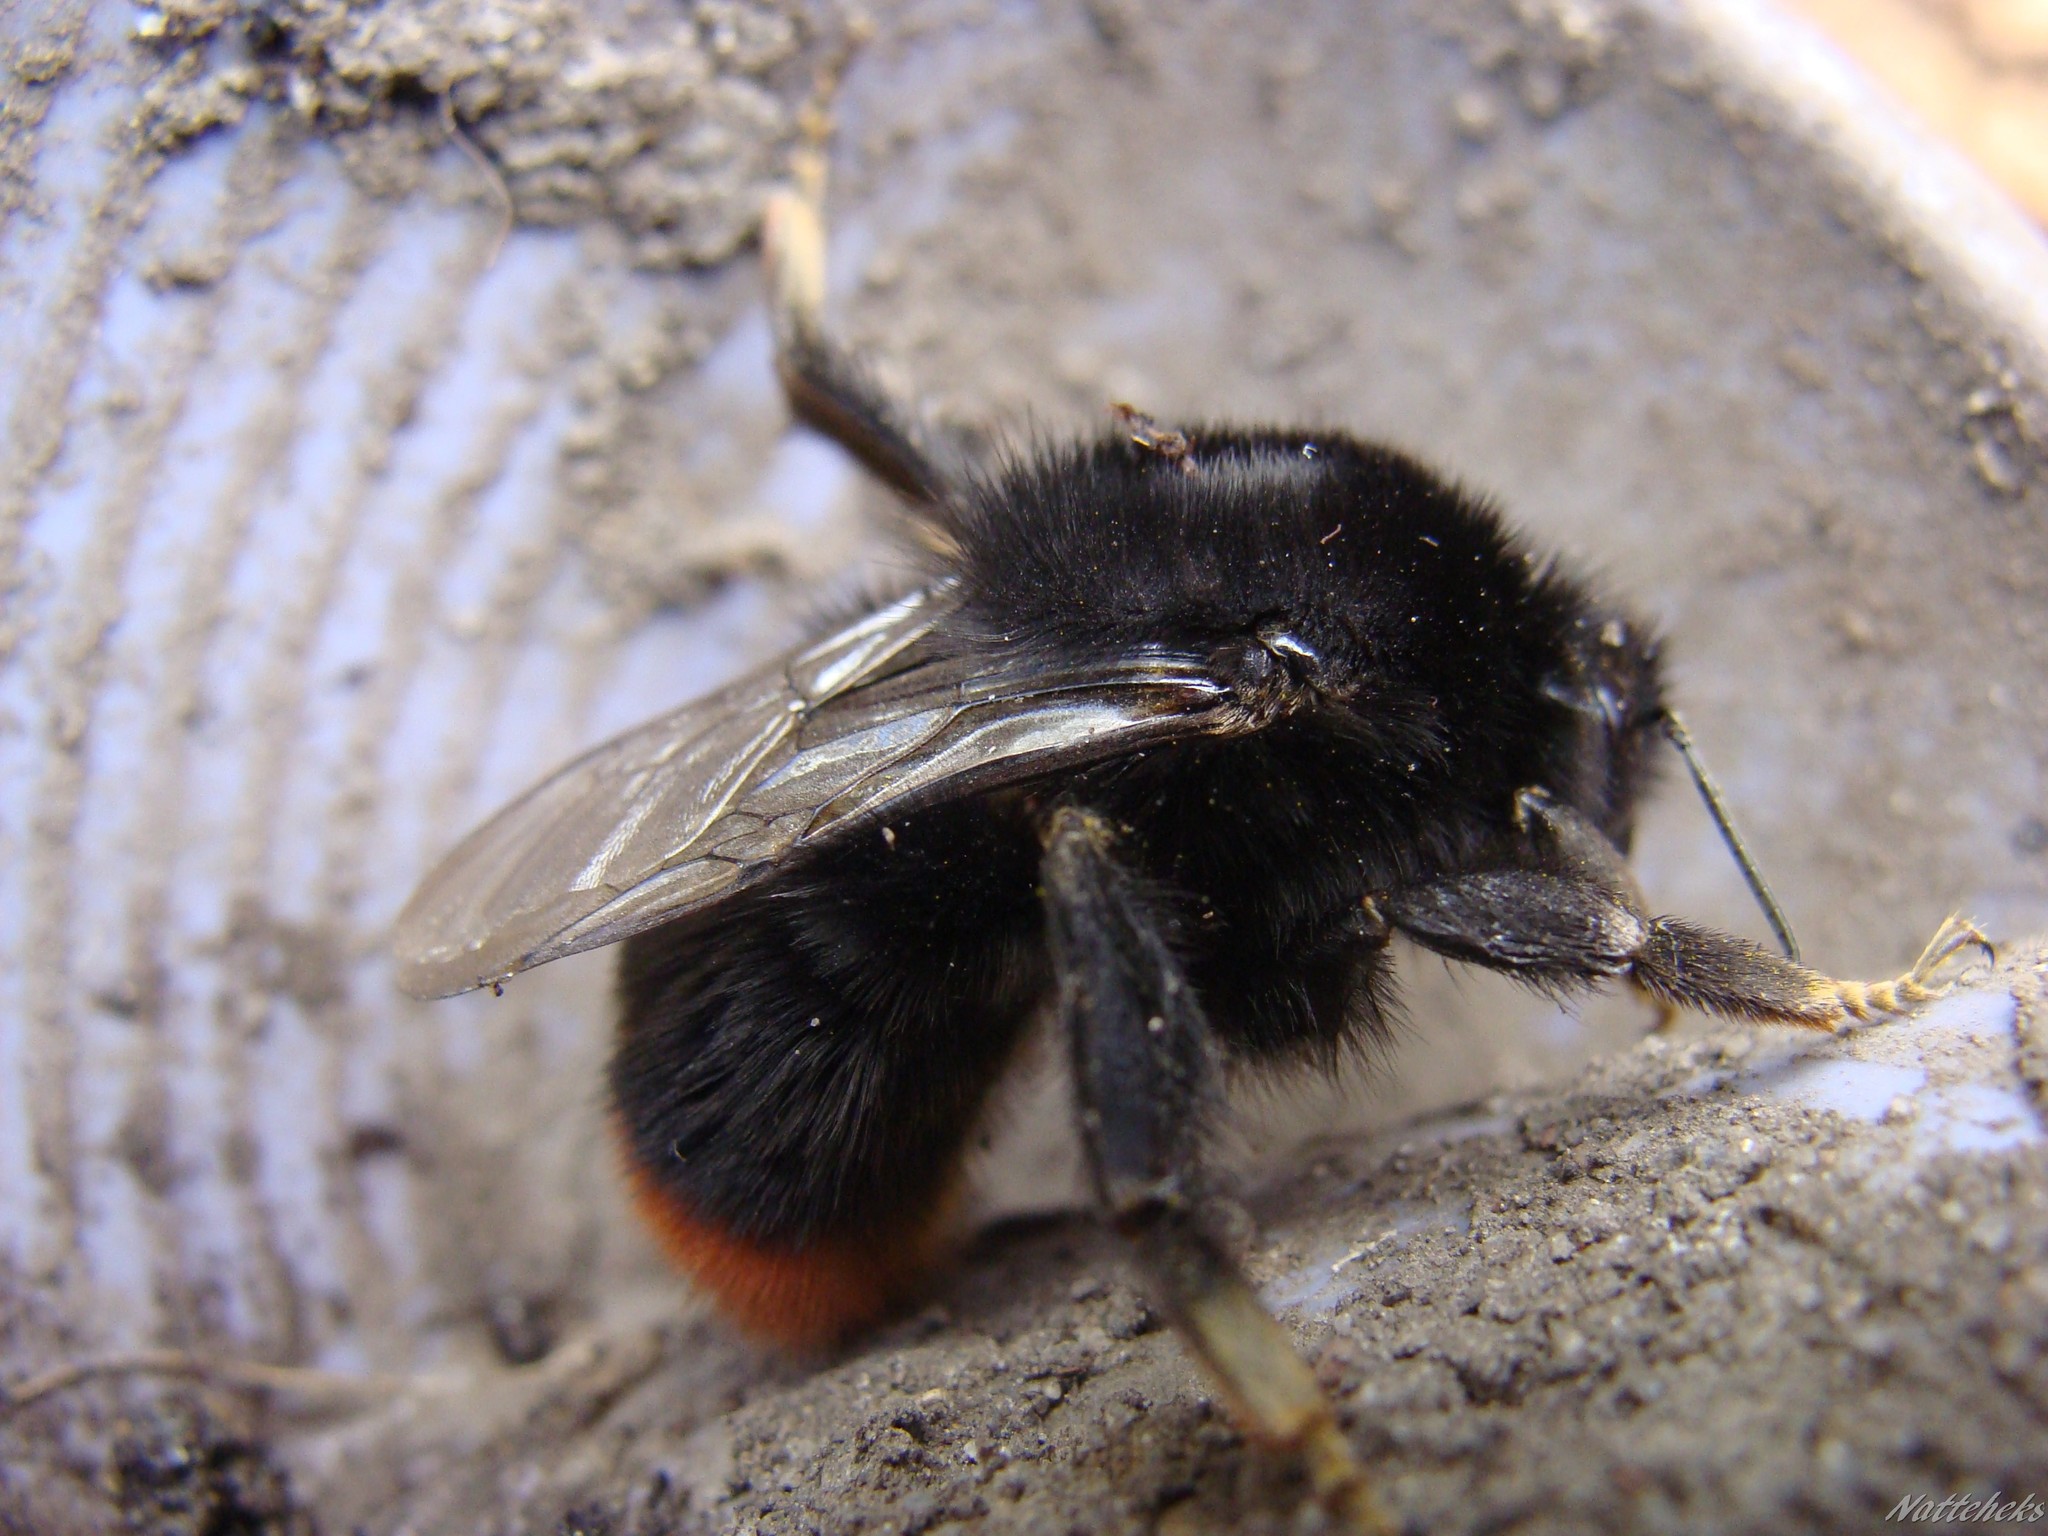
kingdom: Animalia
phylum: Arthropoda
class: Insecta
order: Hymenoptera
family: Apidae
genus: Bombus
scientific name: Bombus lapidarius
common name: Large red-tailed humble-bee
